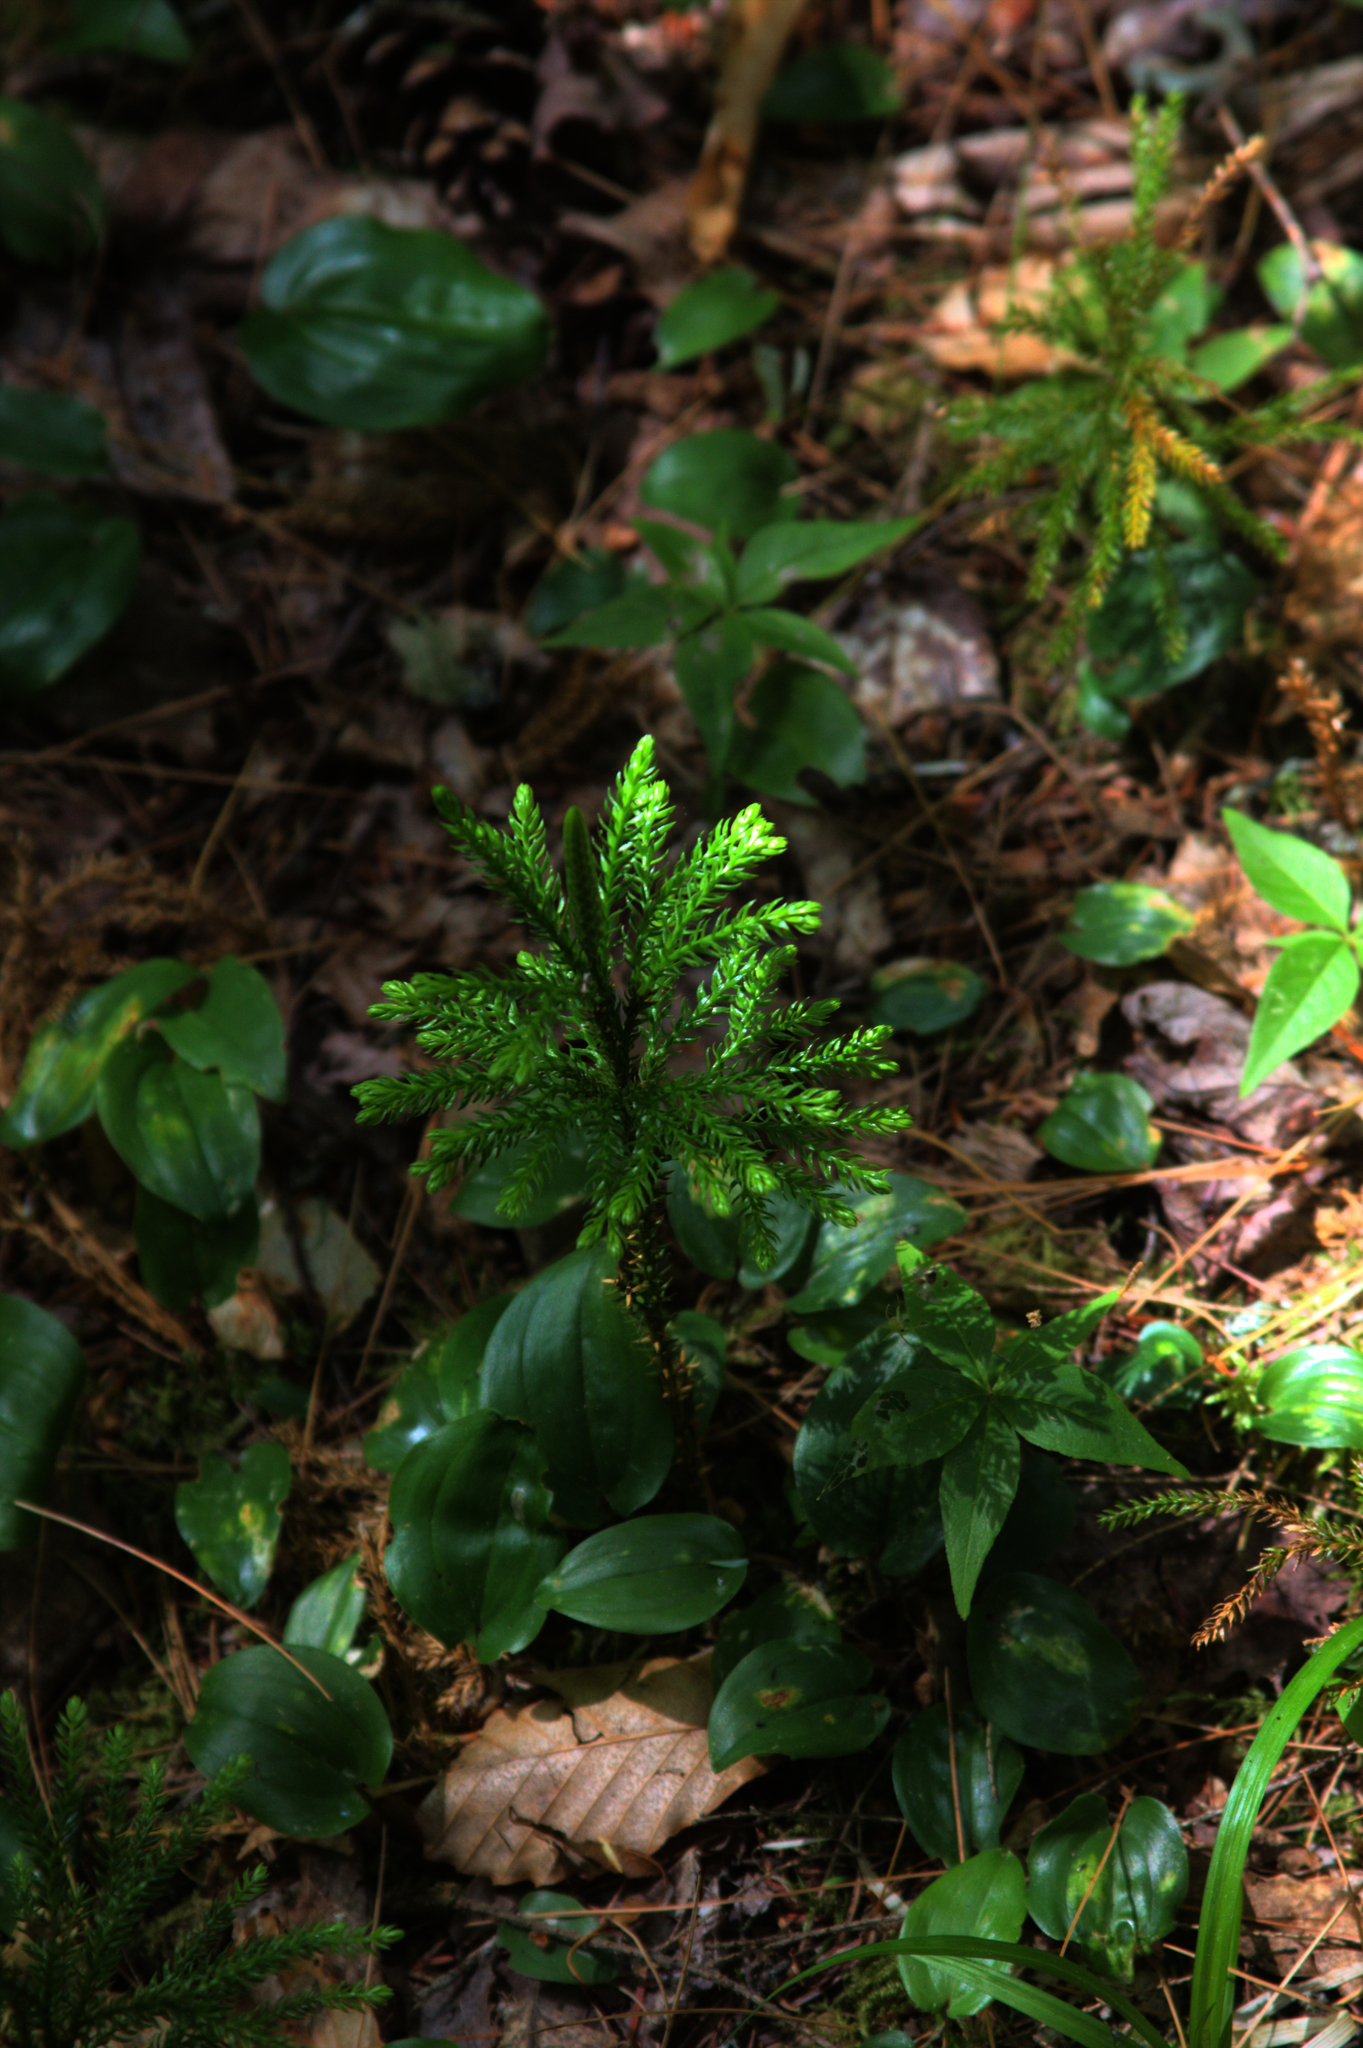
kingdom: Plantae
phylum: Tracheophyta
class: Liliopsida
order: Asparagales
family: Asparagaceae
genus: Maianthemum
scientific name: Maianthemum canadense
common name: False lily-of-the-valley
